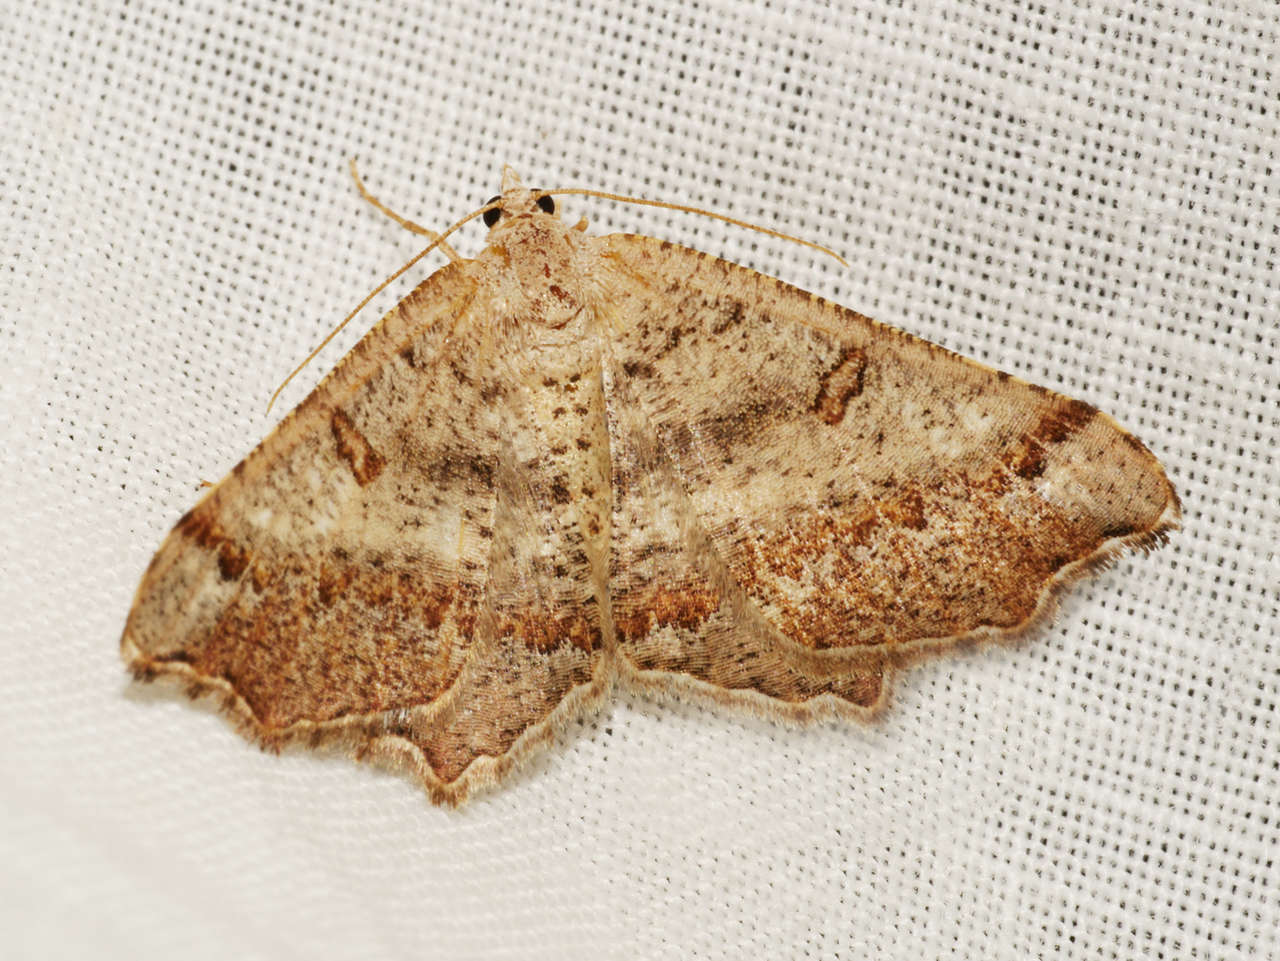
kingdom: Animalia
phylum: Arthropoda
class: Insecta
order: Lepidoptera
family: Geometridae
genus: Dissomorphia
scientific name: Dissomorphia australiaria
